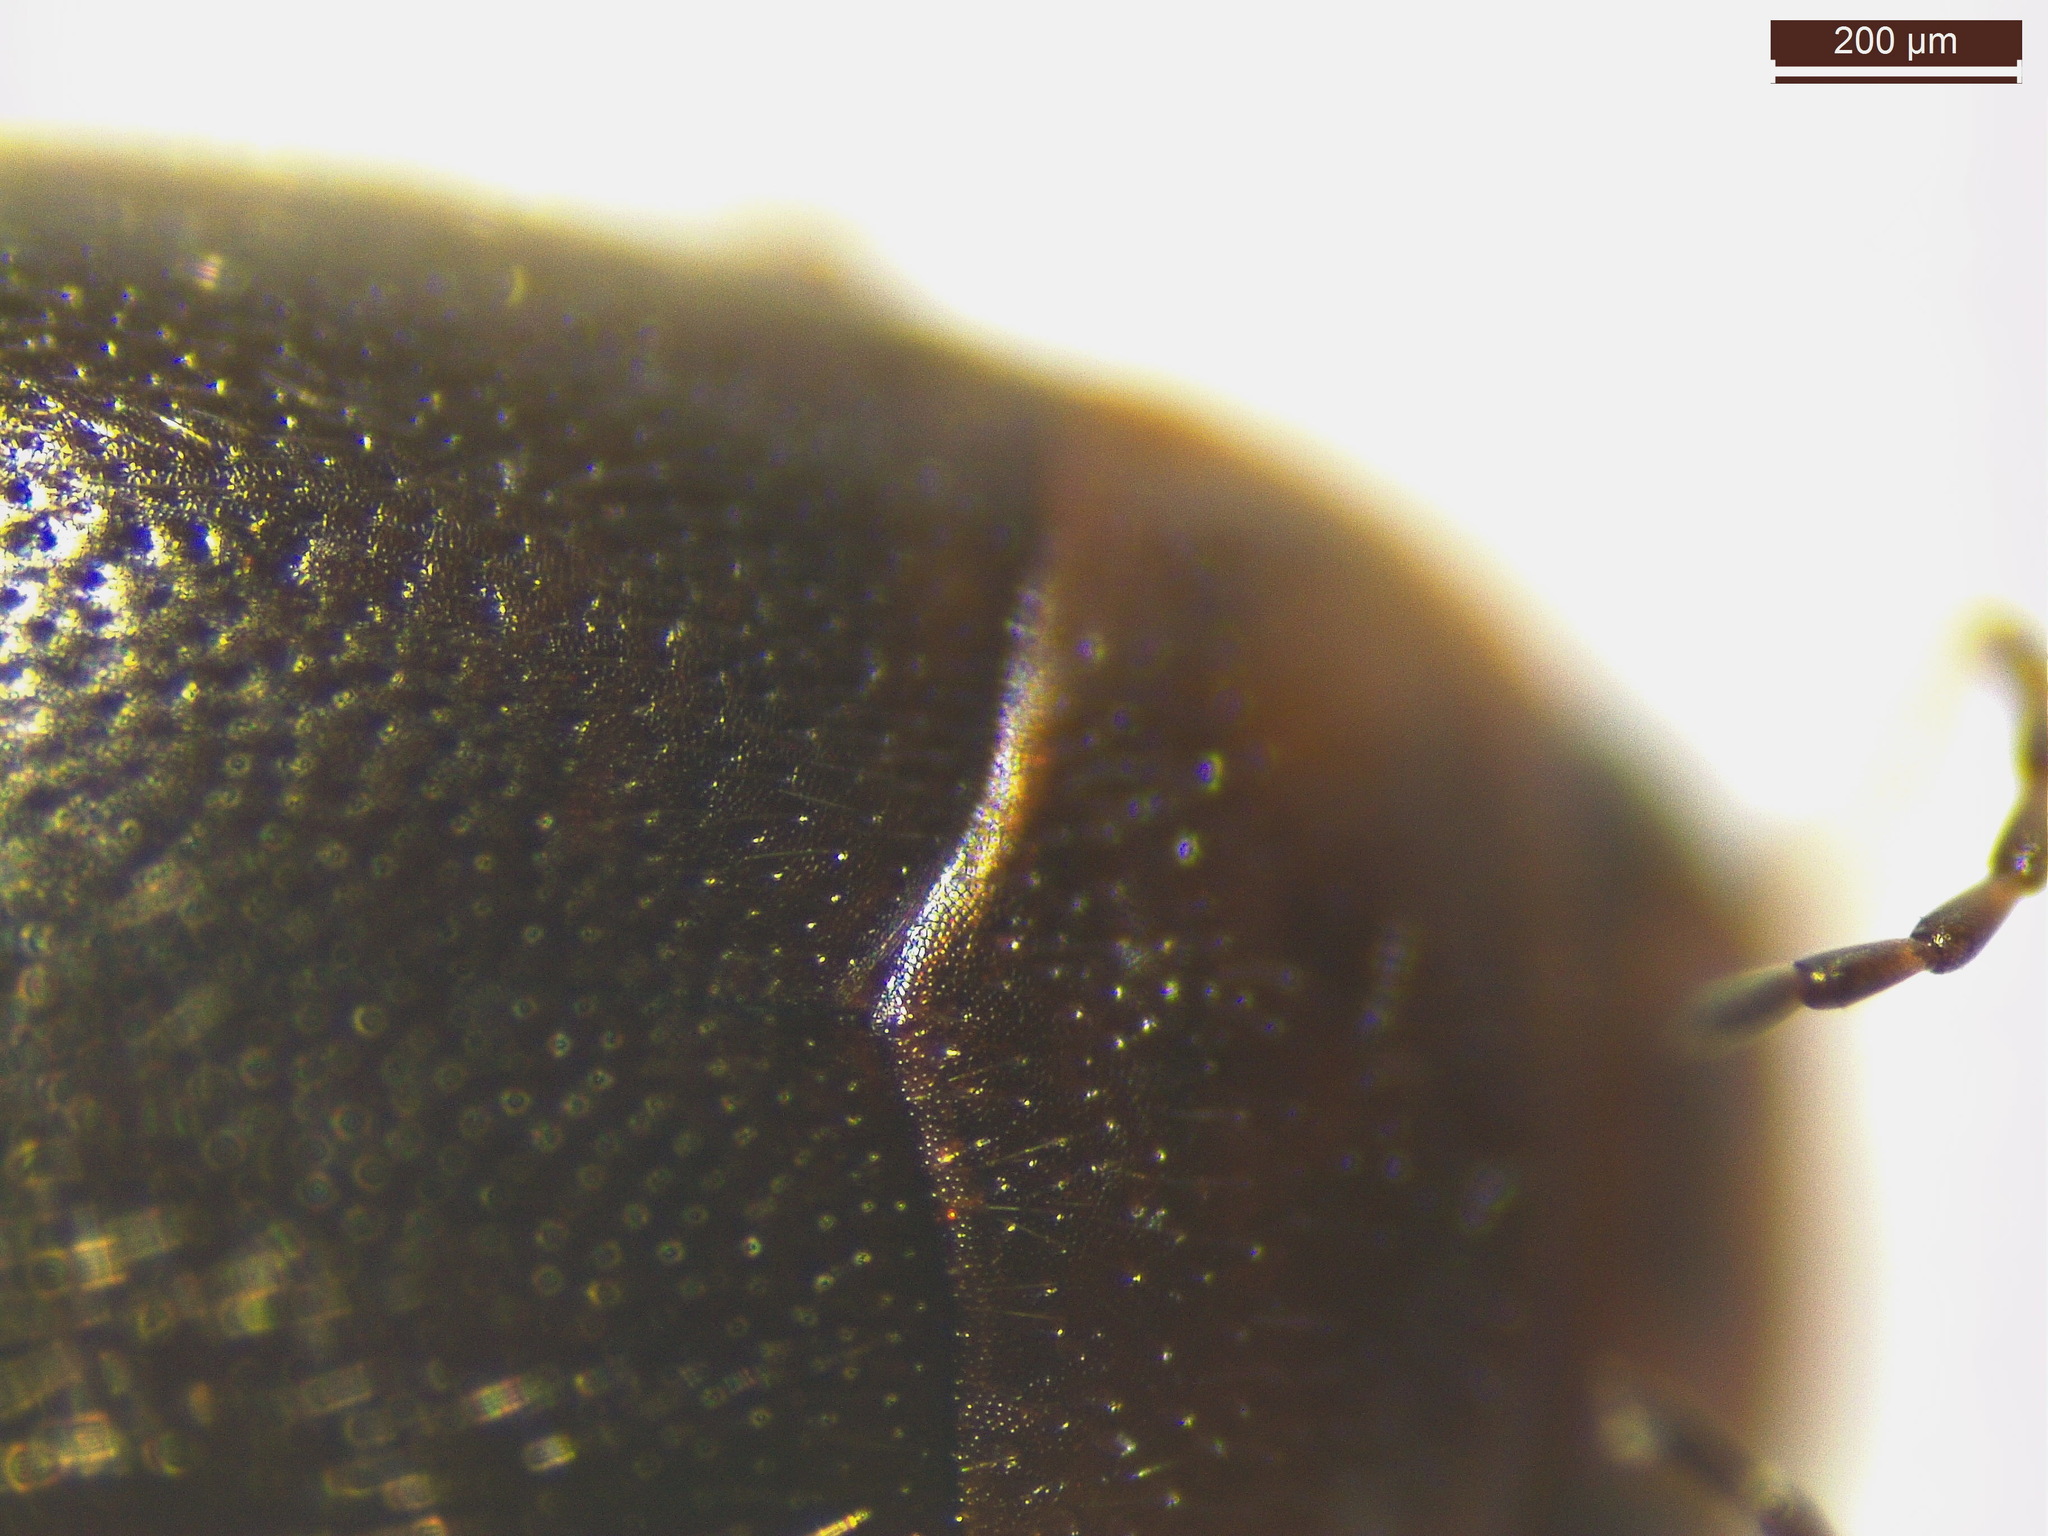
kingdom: Animalia
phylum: Arthropoda
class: Insecta
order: Coleoptera
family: Dytiscidae
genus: Hydroporus
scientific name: Hydroporus angustatus
